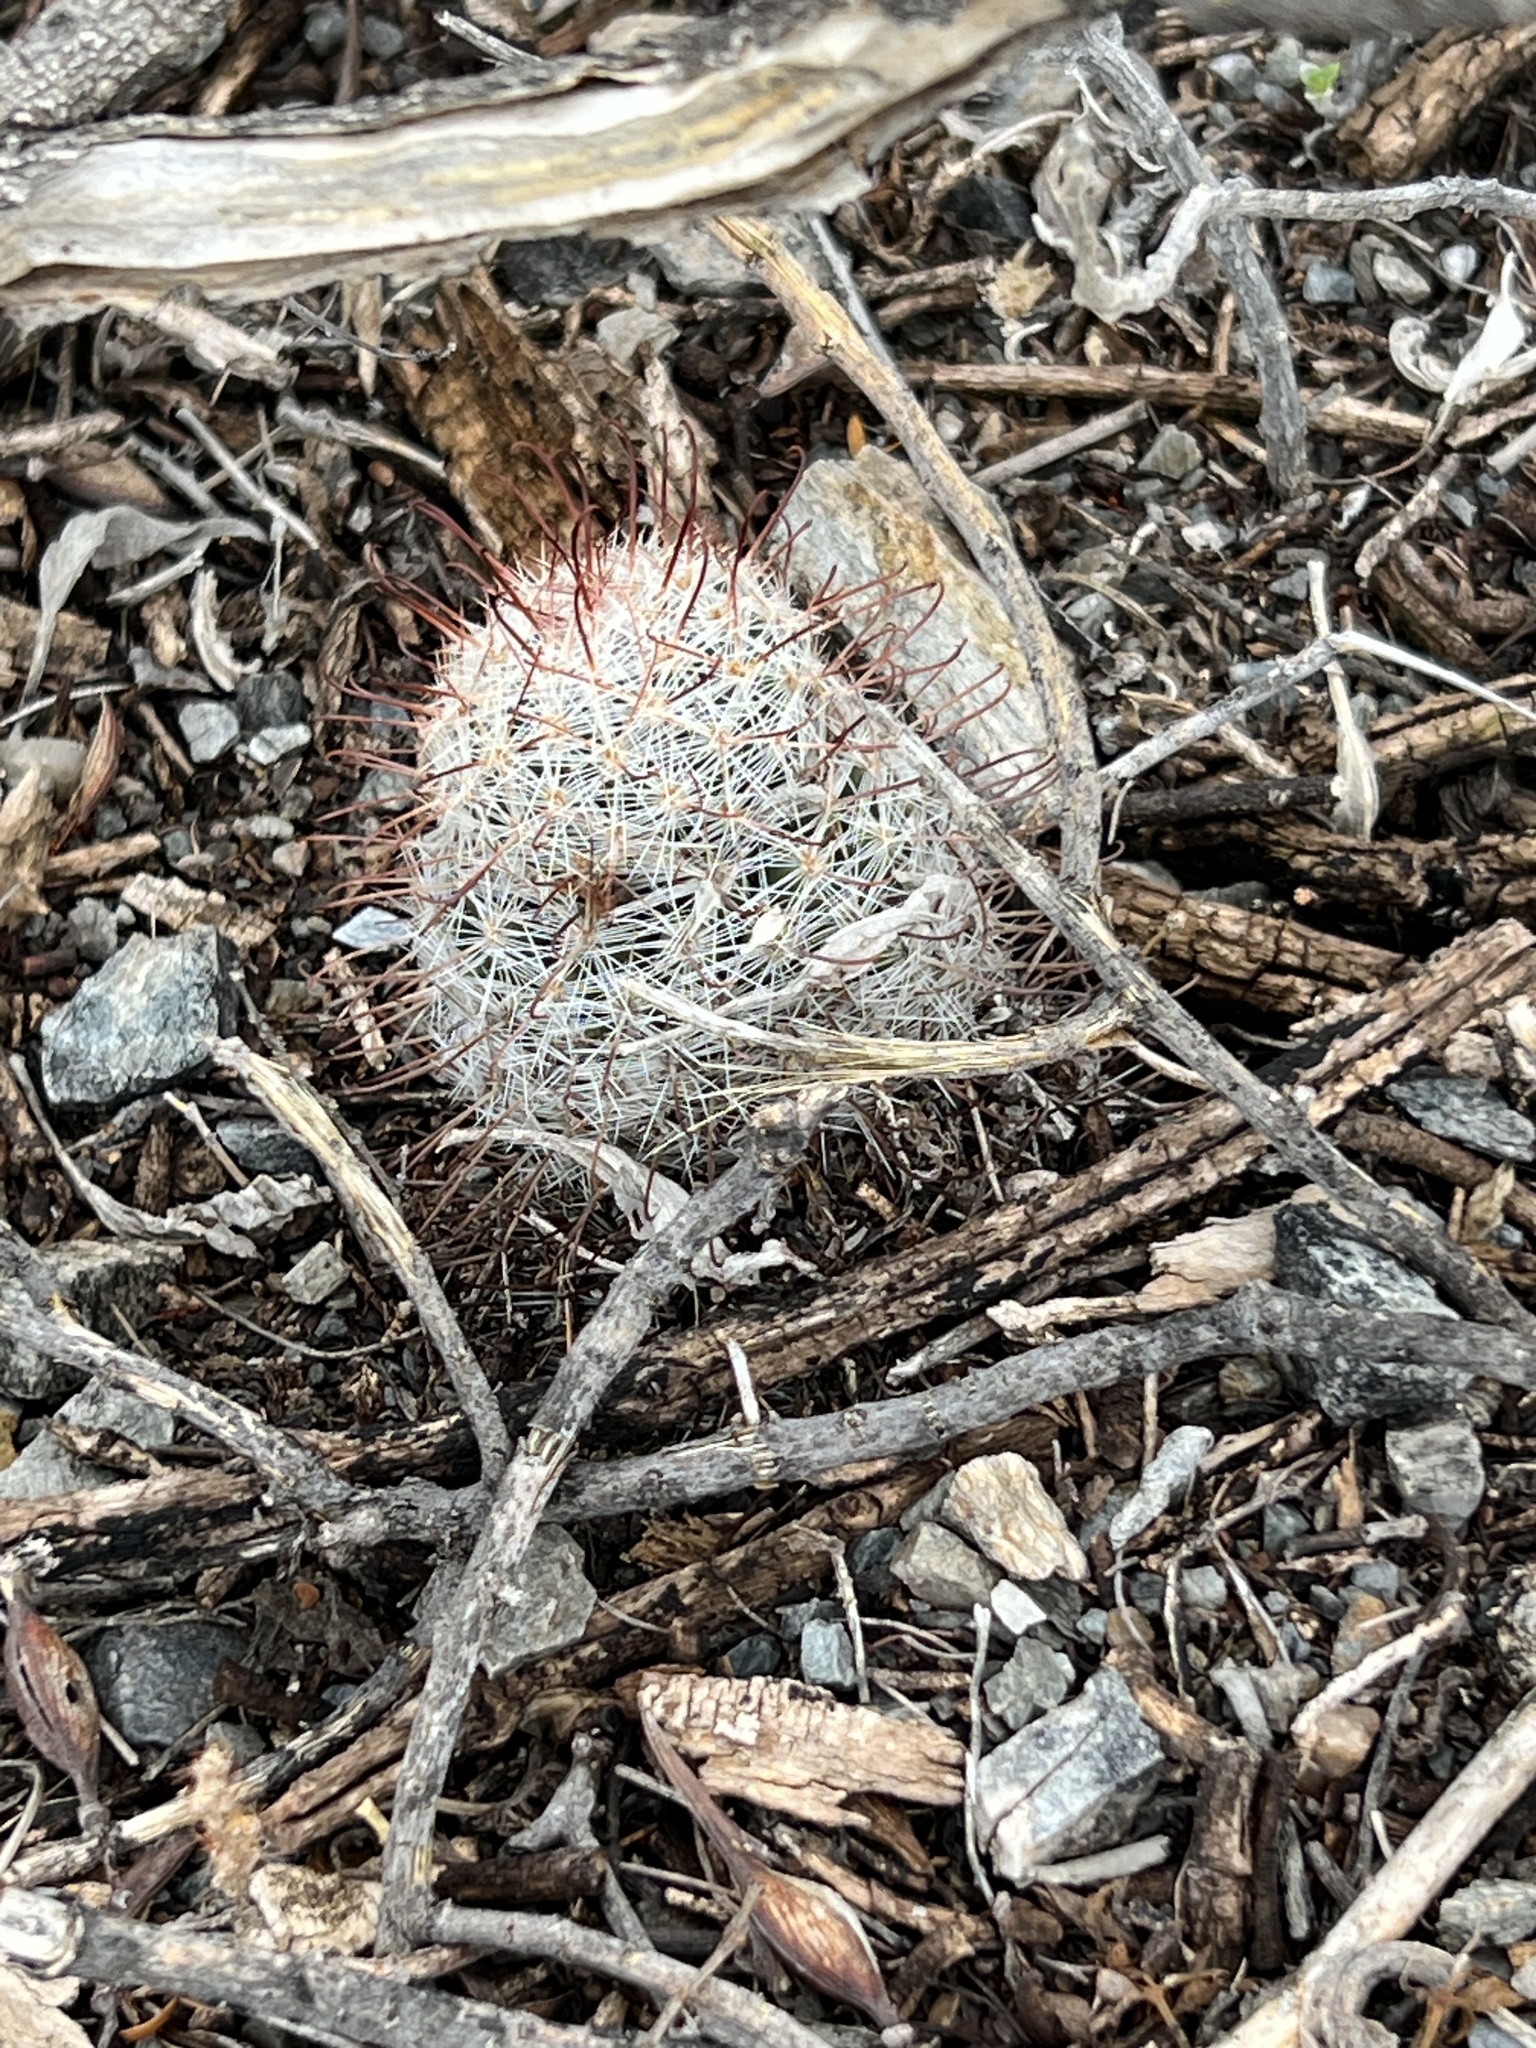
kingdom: Plantae
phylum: Tracheophyta
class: Magnoliopsida
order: Caryophyllales
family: Cactaceae
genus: Cochemiea
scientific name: Cochemiea grahamii
